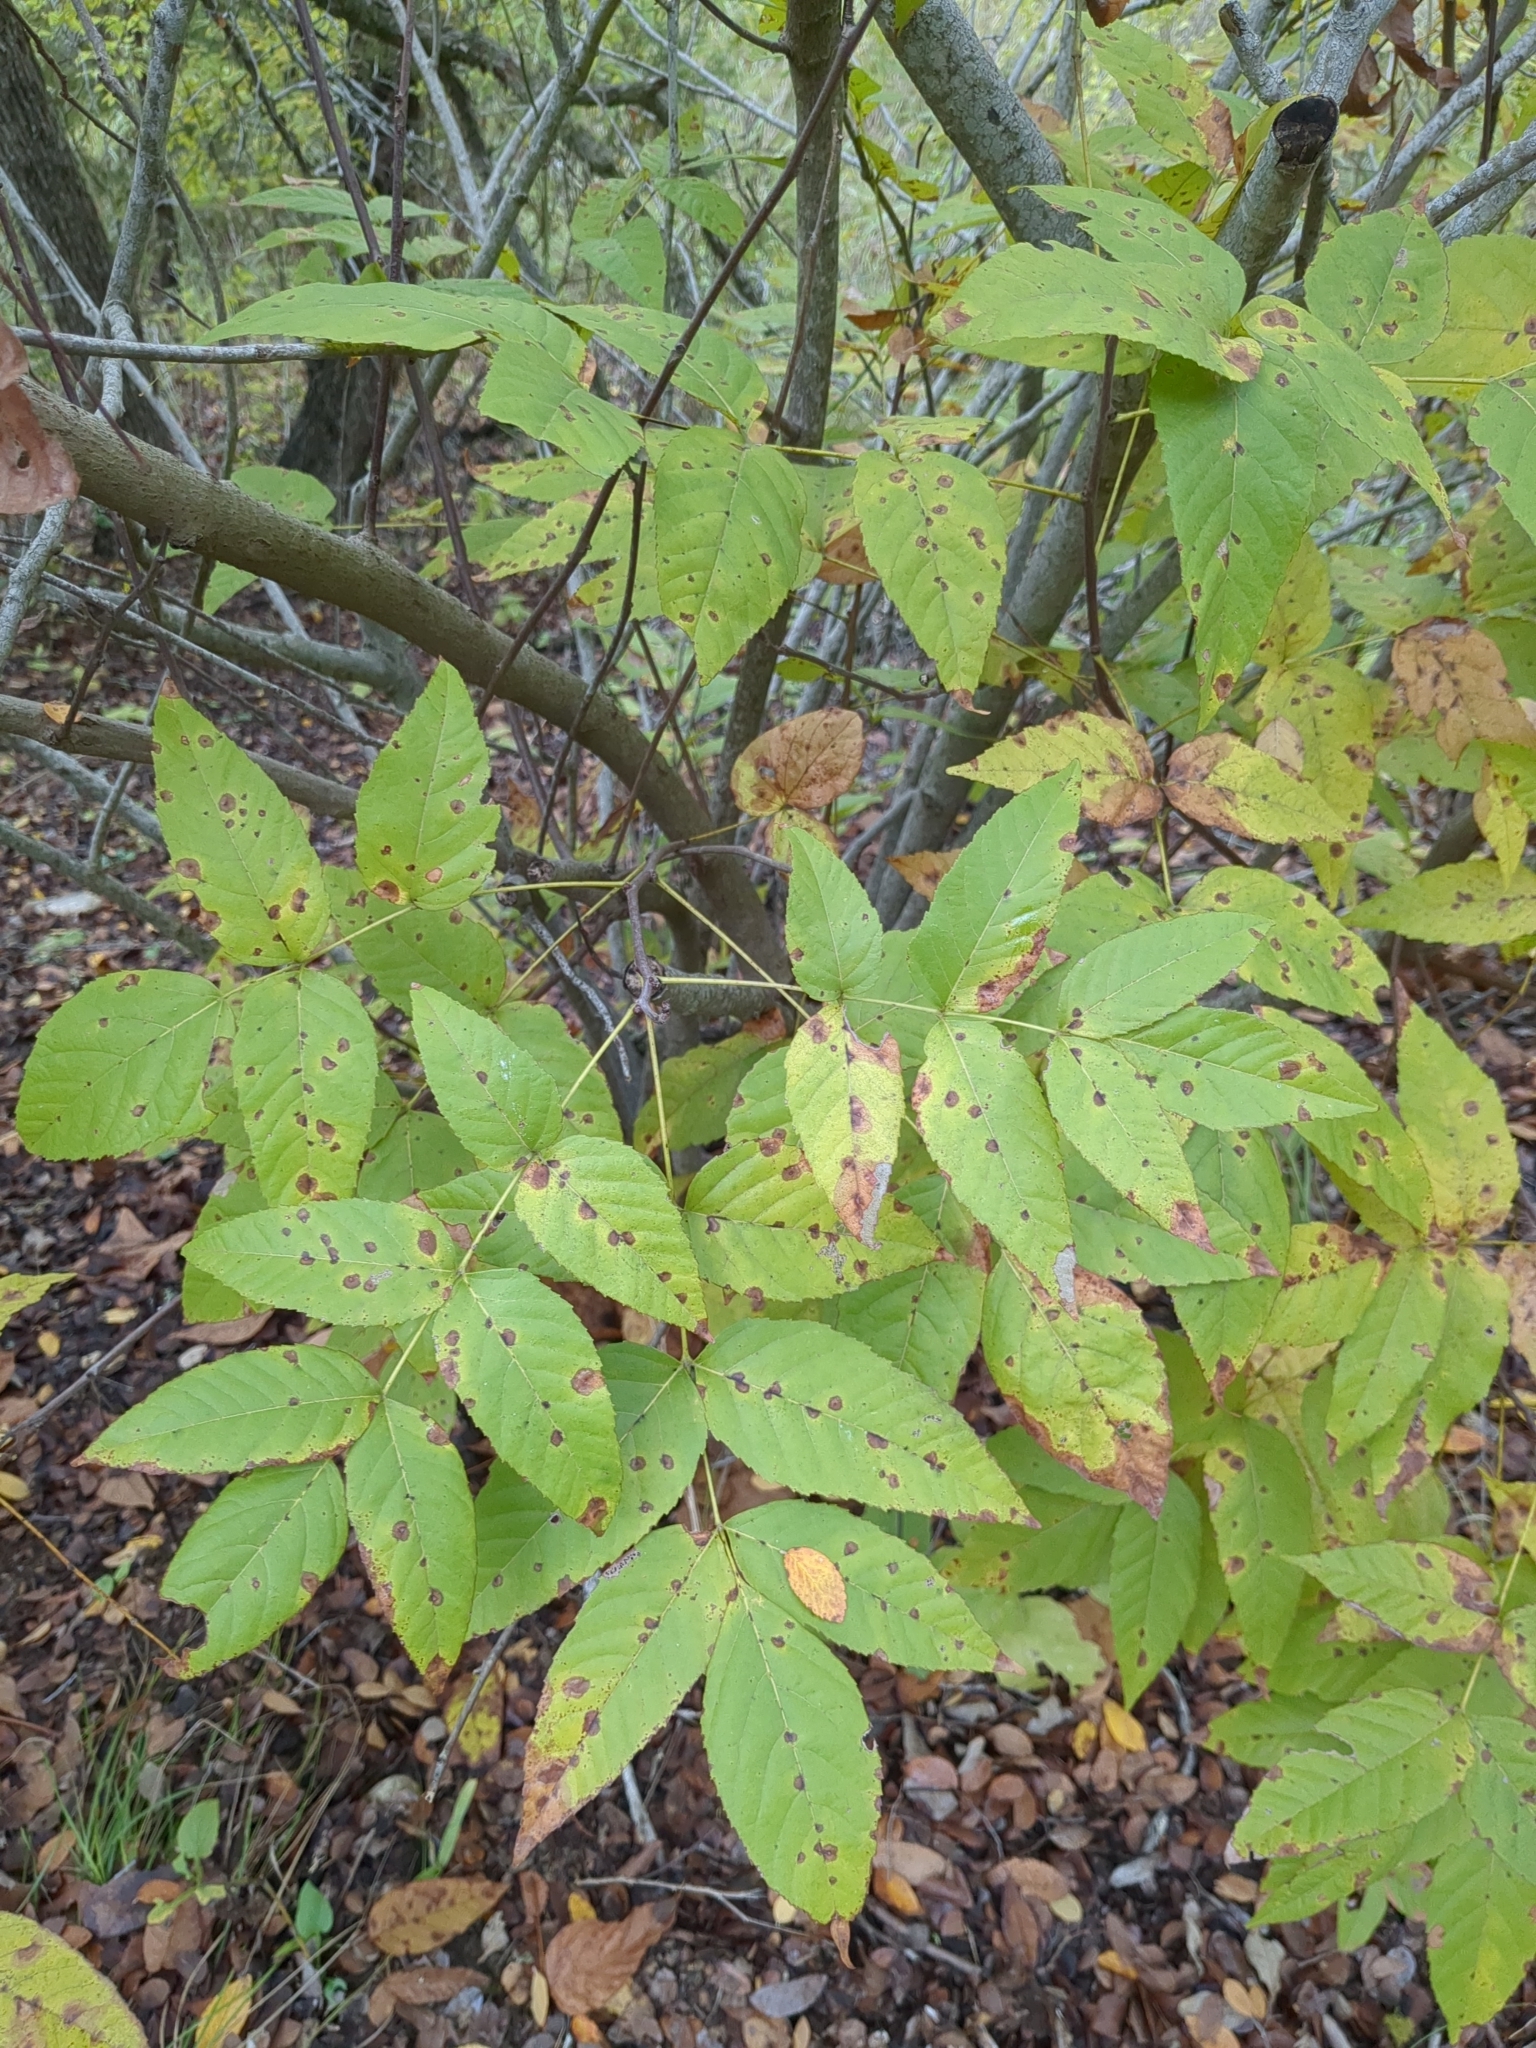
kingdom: Plantae
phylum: Tracheophyta
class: Magnoliopsida
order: Sapindales
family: Sapindaceae
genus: Ungnadia
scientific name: Ungnadia speciosa
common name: Texas-buckeye
